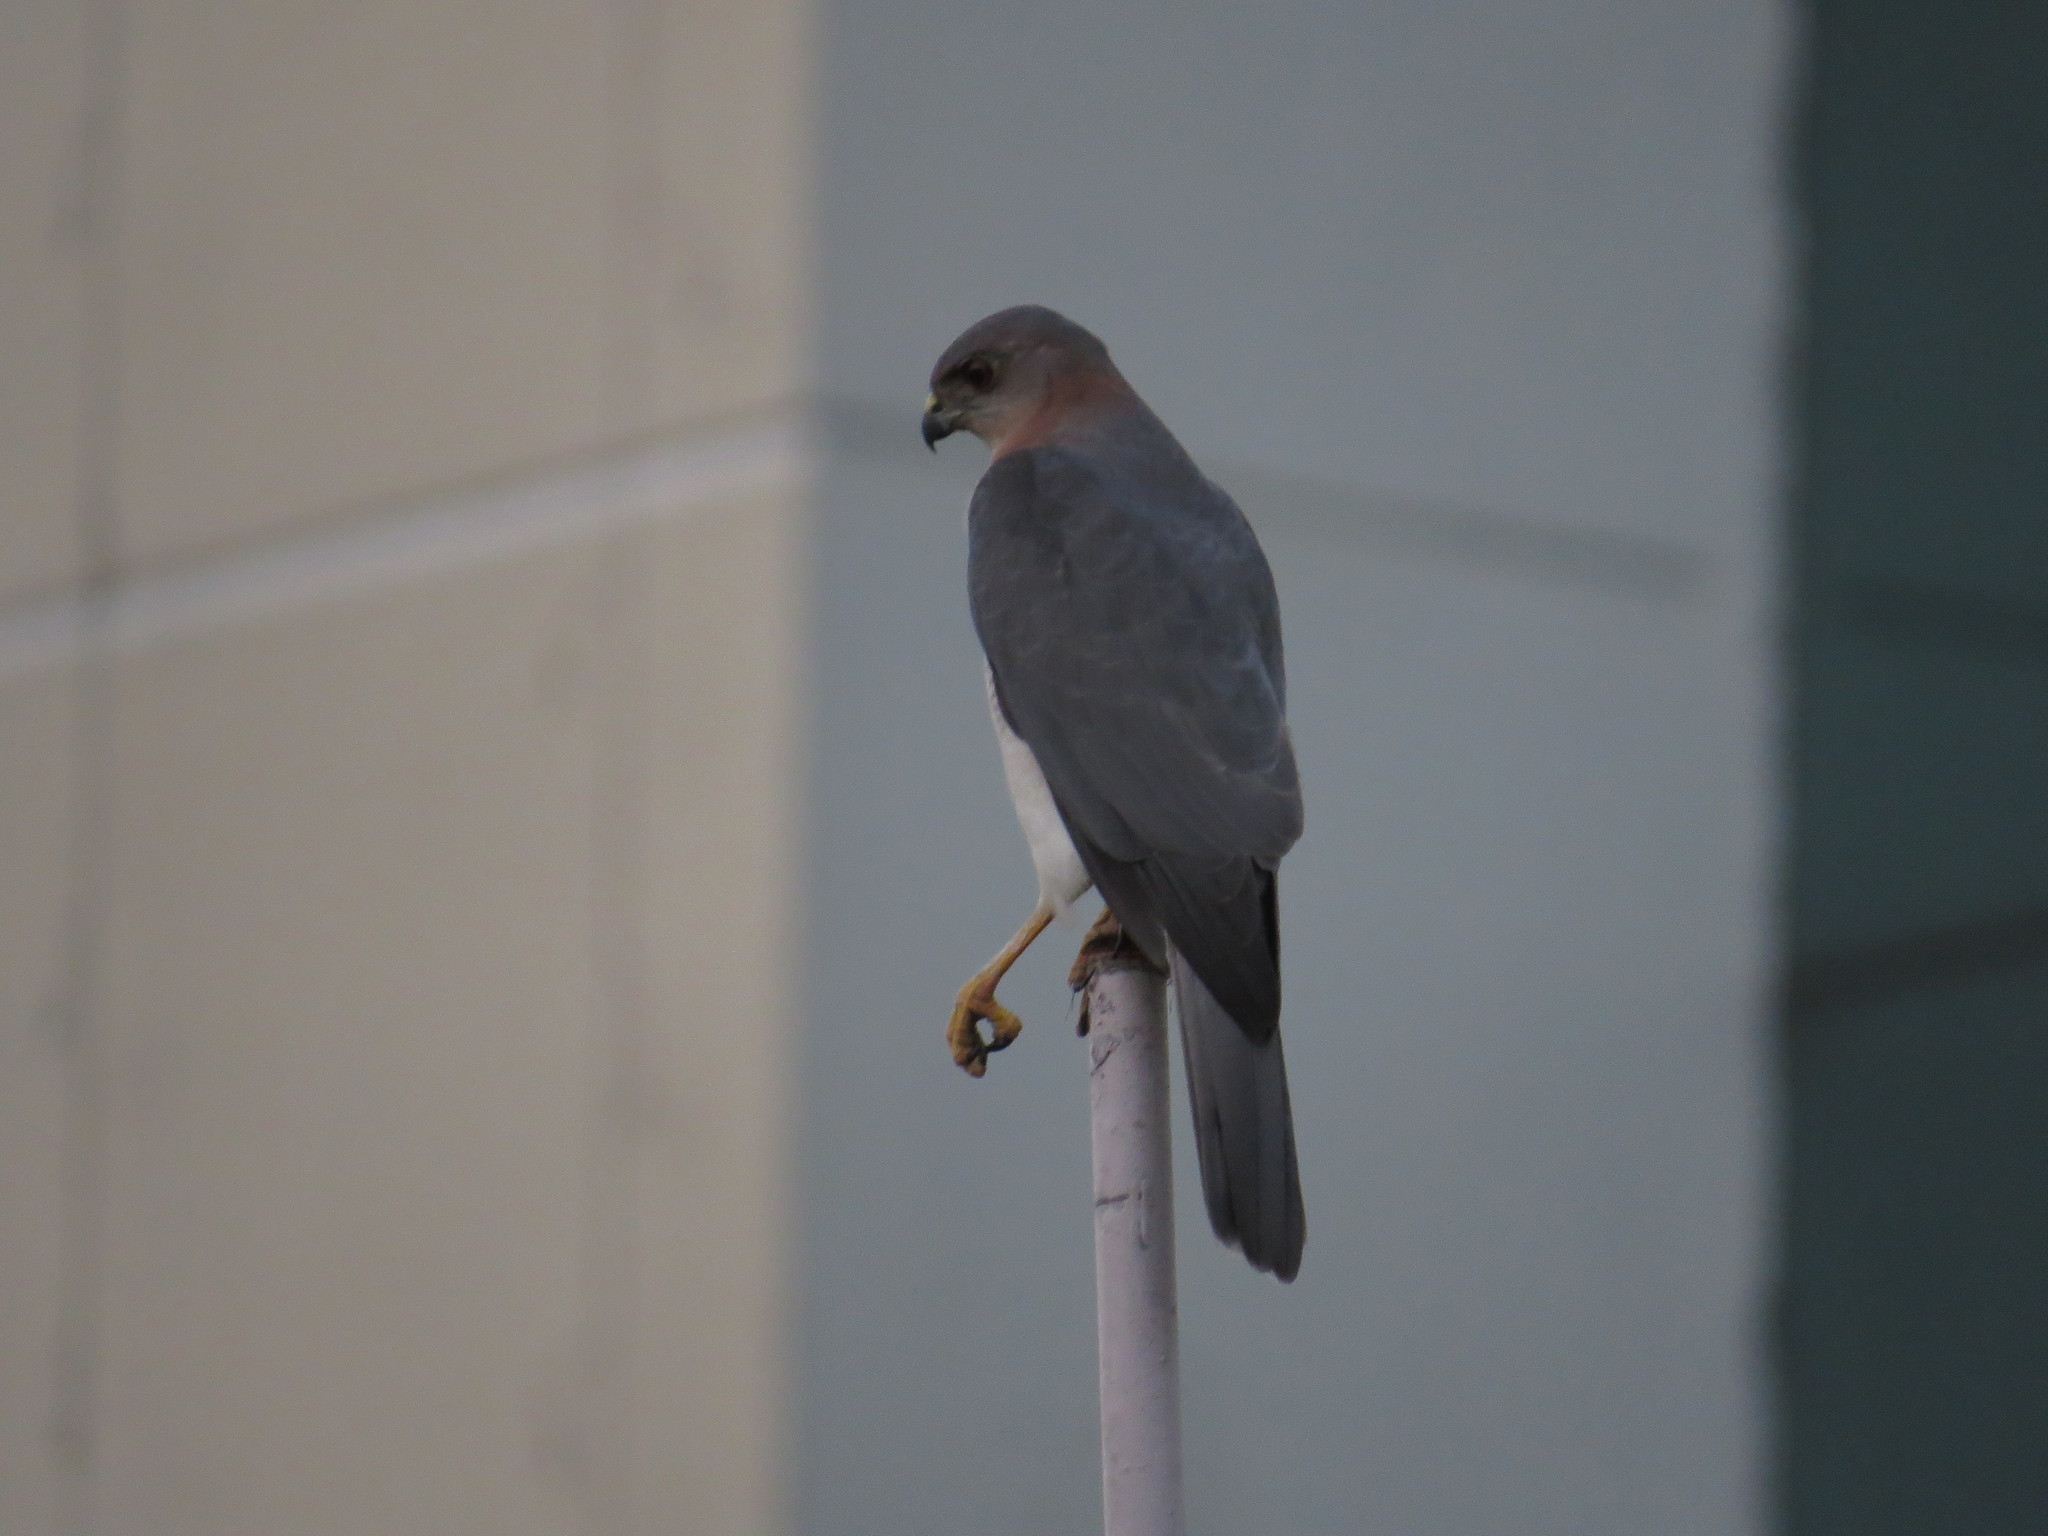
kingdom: Animalia
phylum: Chordata
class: Aves
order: Accipitriformes
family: Accipitridae
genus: Accipiter
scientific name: Accipiter badius
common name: Shikra
